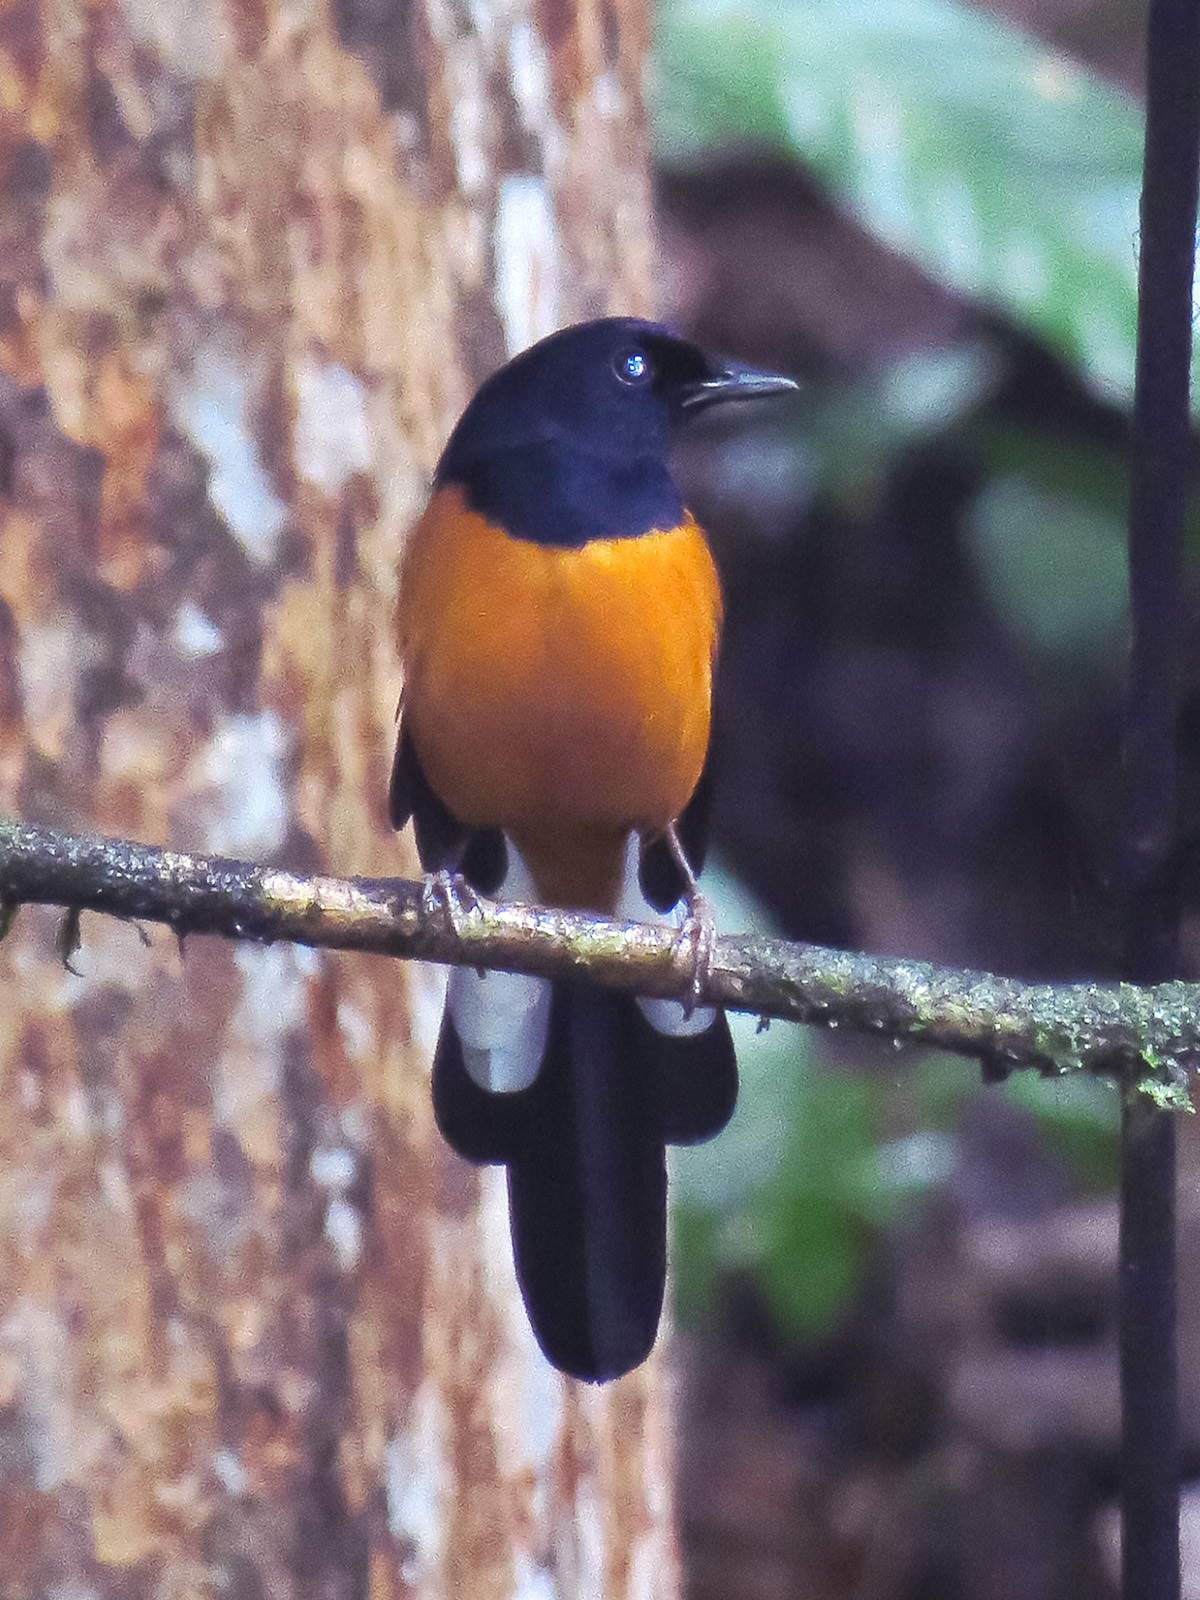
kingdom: Animalia
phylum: Chordata
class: Aves
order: Passeriformes
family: Muscicapidae
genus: Copsychus
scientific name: Copsychus malabaricus
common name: White-rumped shama
